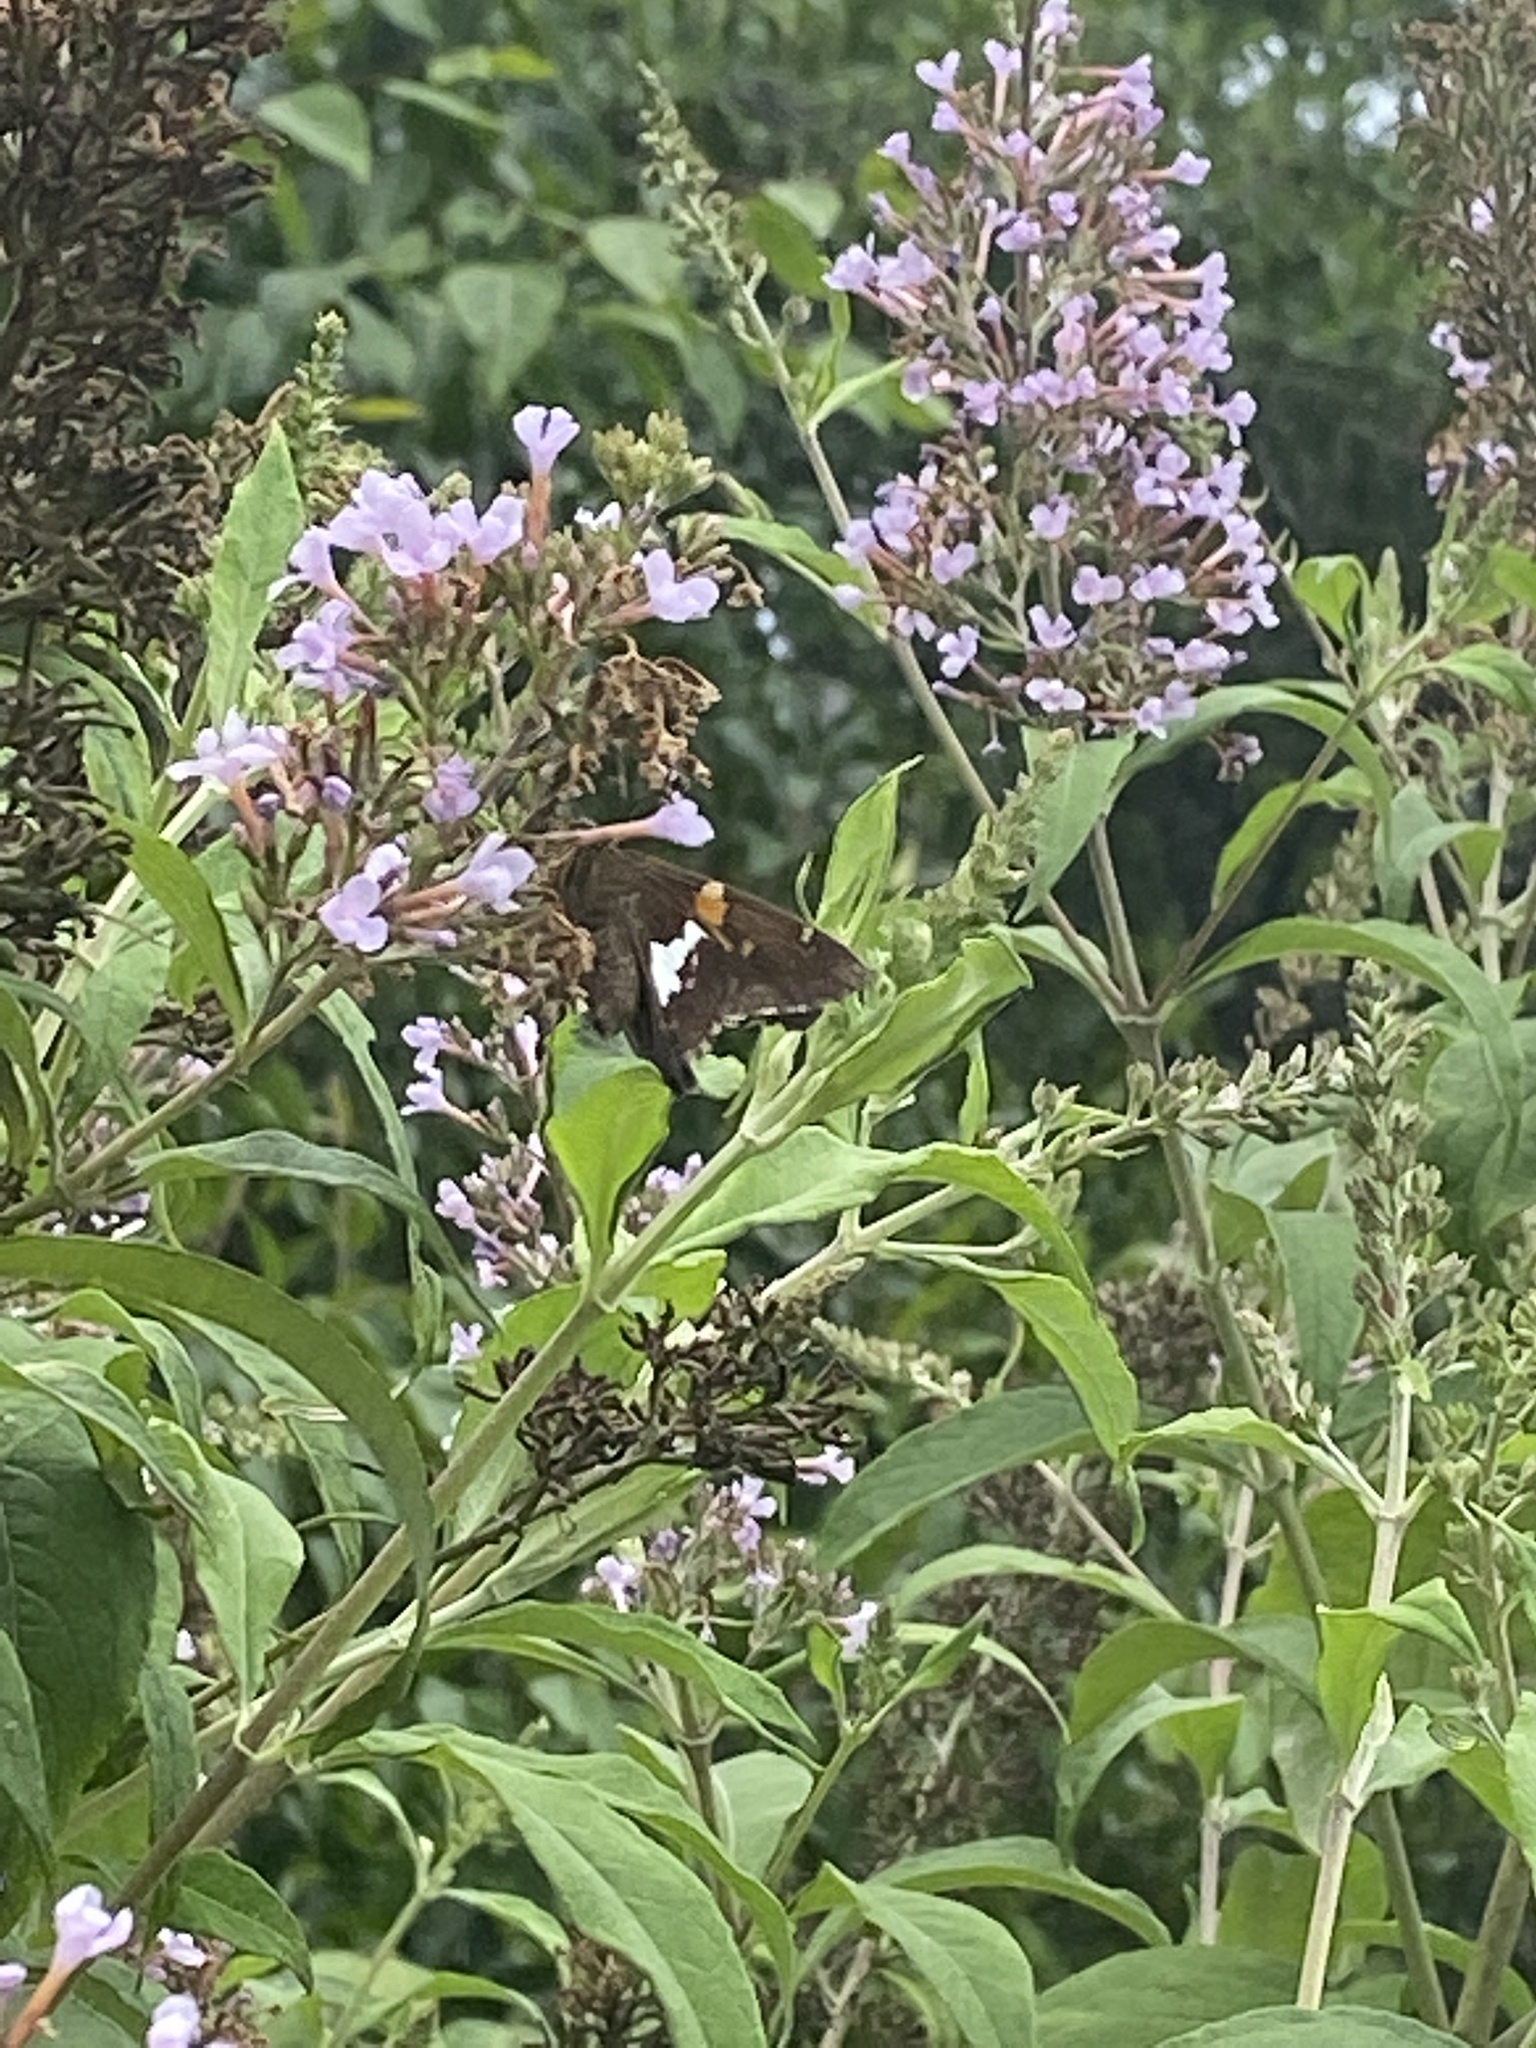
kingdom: Animalia
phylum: Arthropoda
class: Insecta
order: Lepidoptera
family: Hesperiidae
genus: Epargyreus
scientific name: Epargyreus clarus
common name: Silver-spotted skipper
